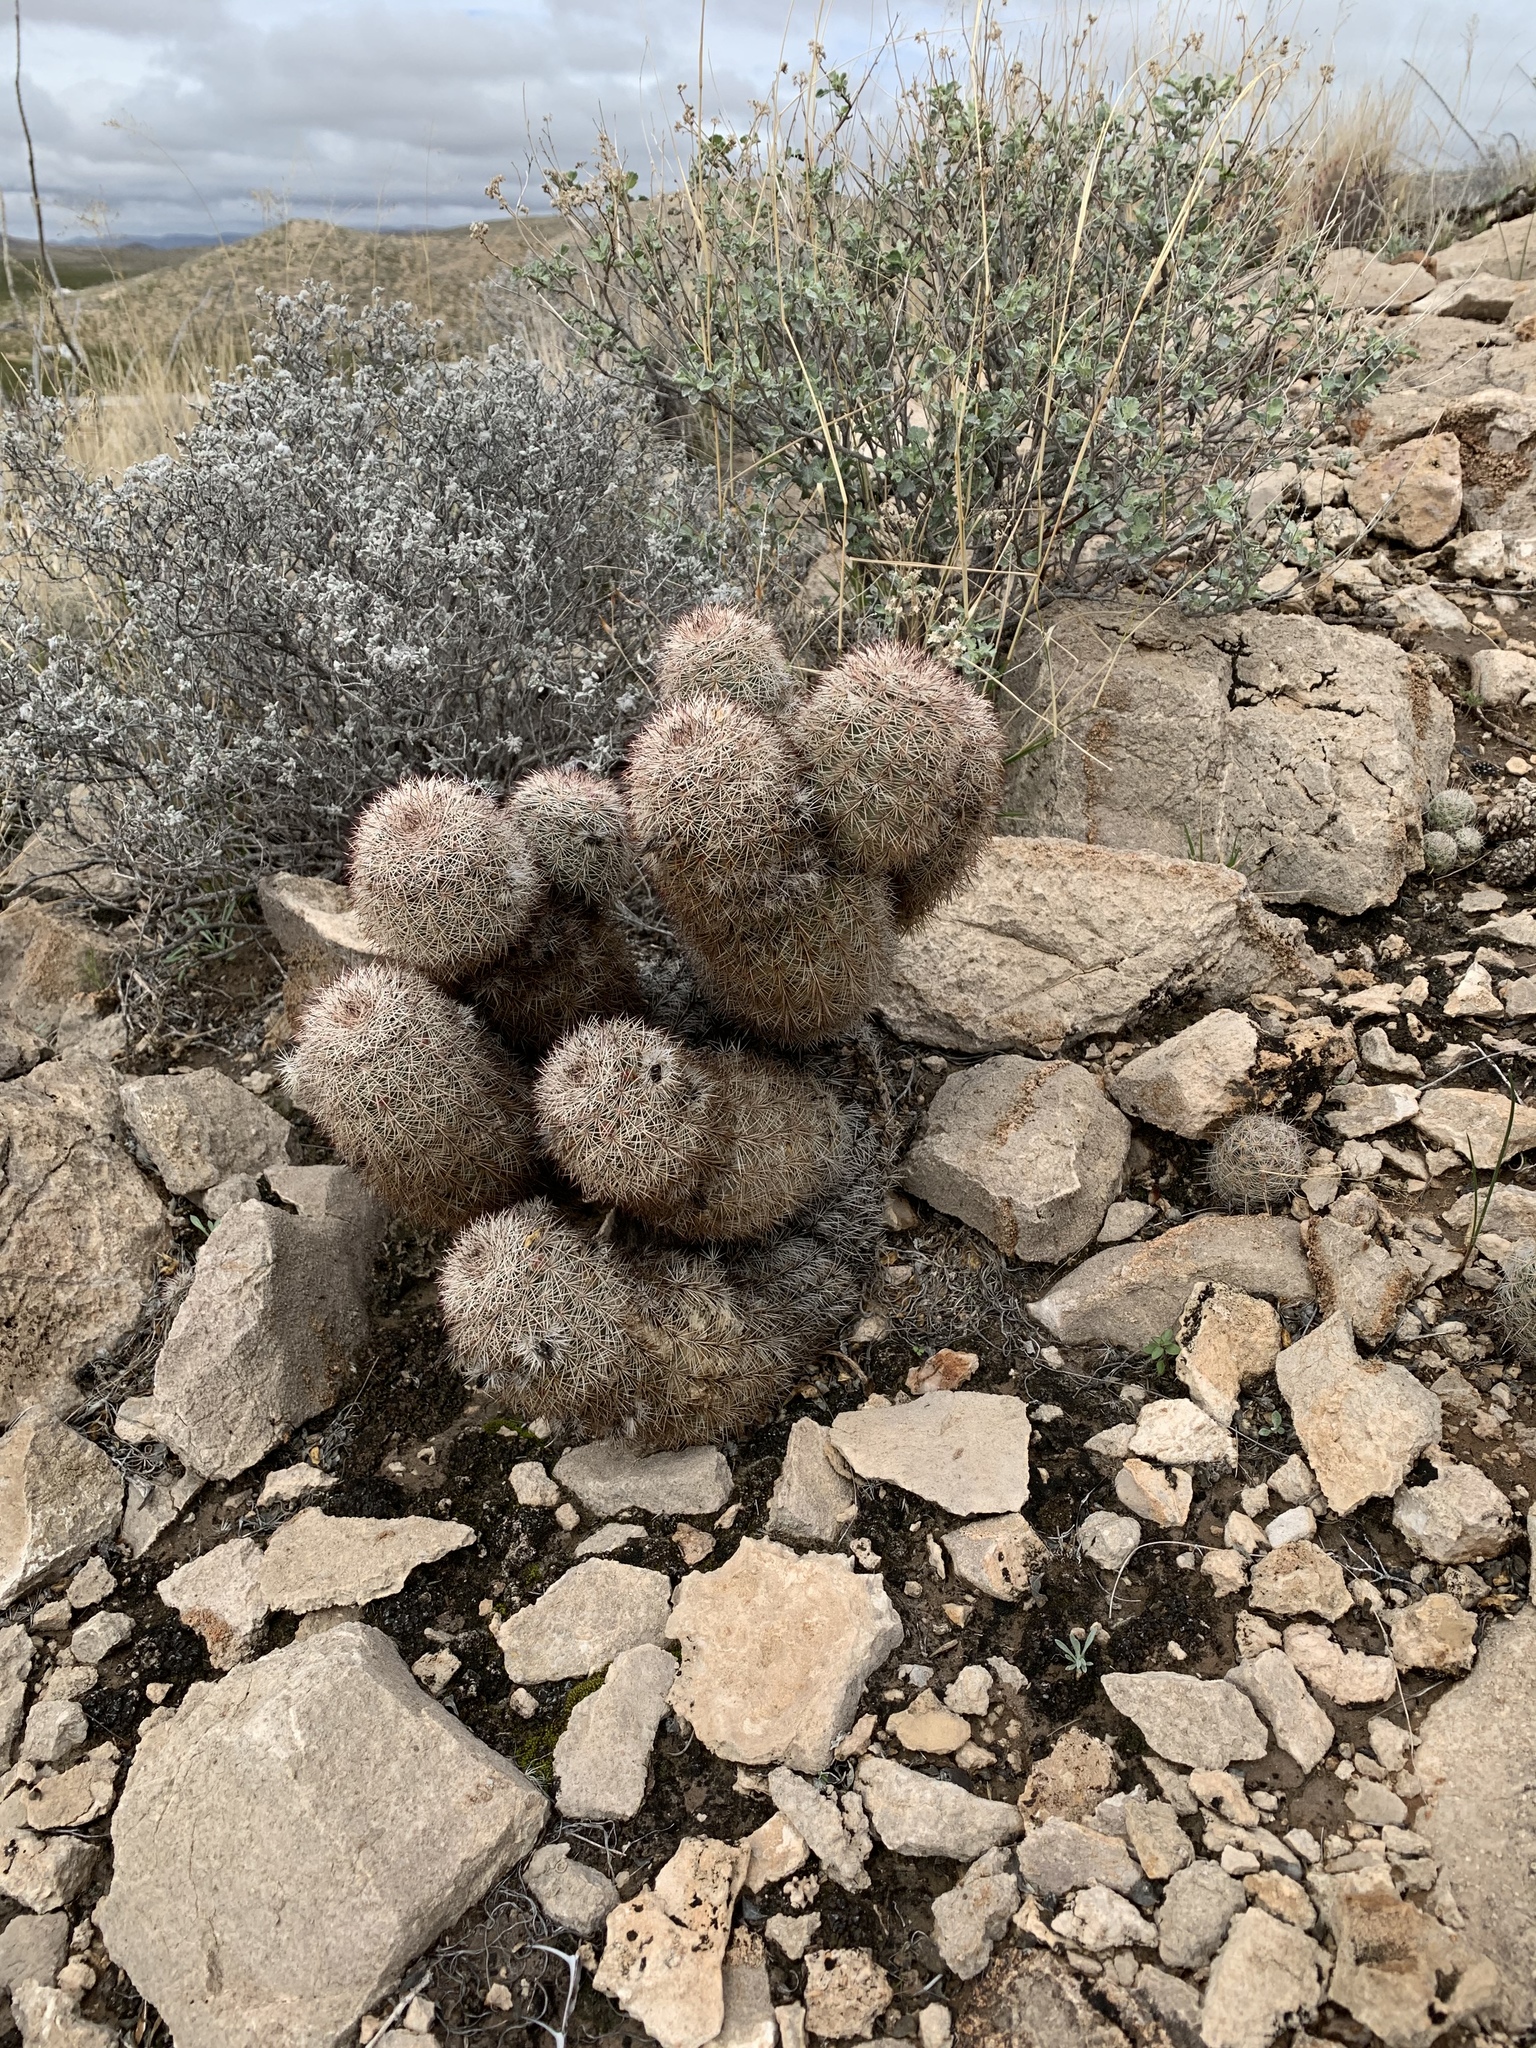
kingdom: Plantae
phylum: Tracheophyta
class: Magnoliopsida
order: Caryophyllales
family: Cactaceae
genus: Echinocereus
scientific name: Echinocereus dasyacanthus
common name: Spiny hedgehog cactus
